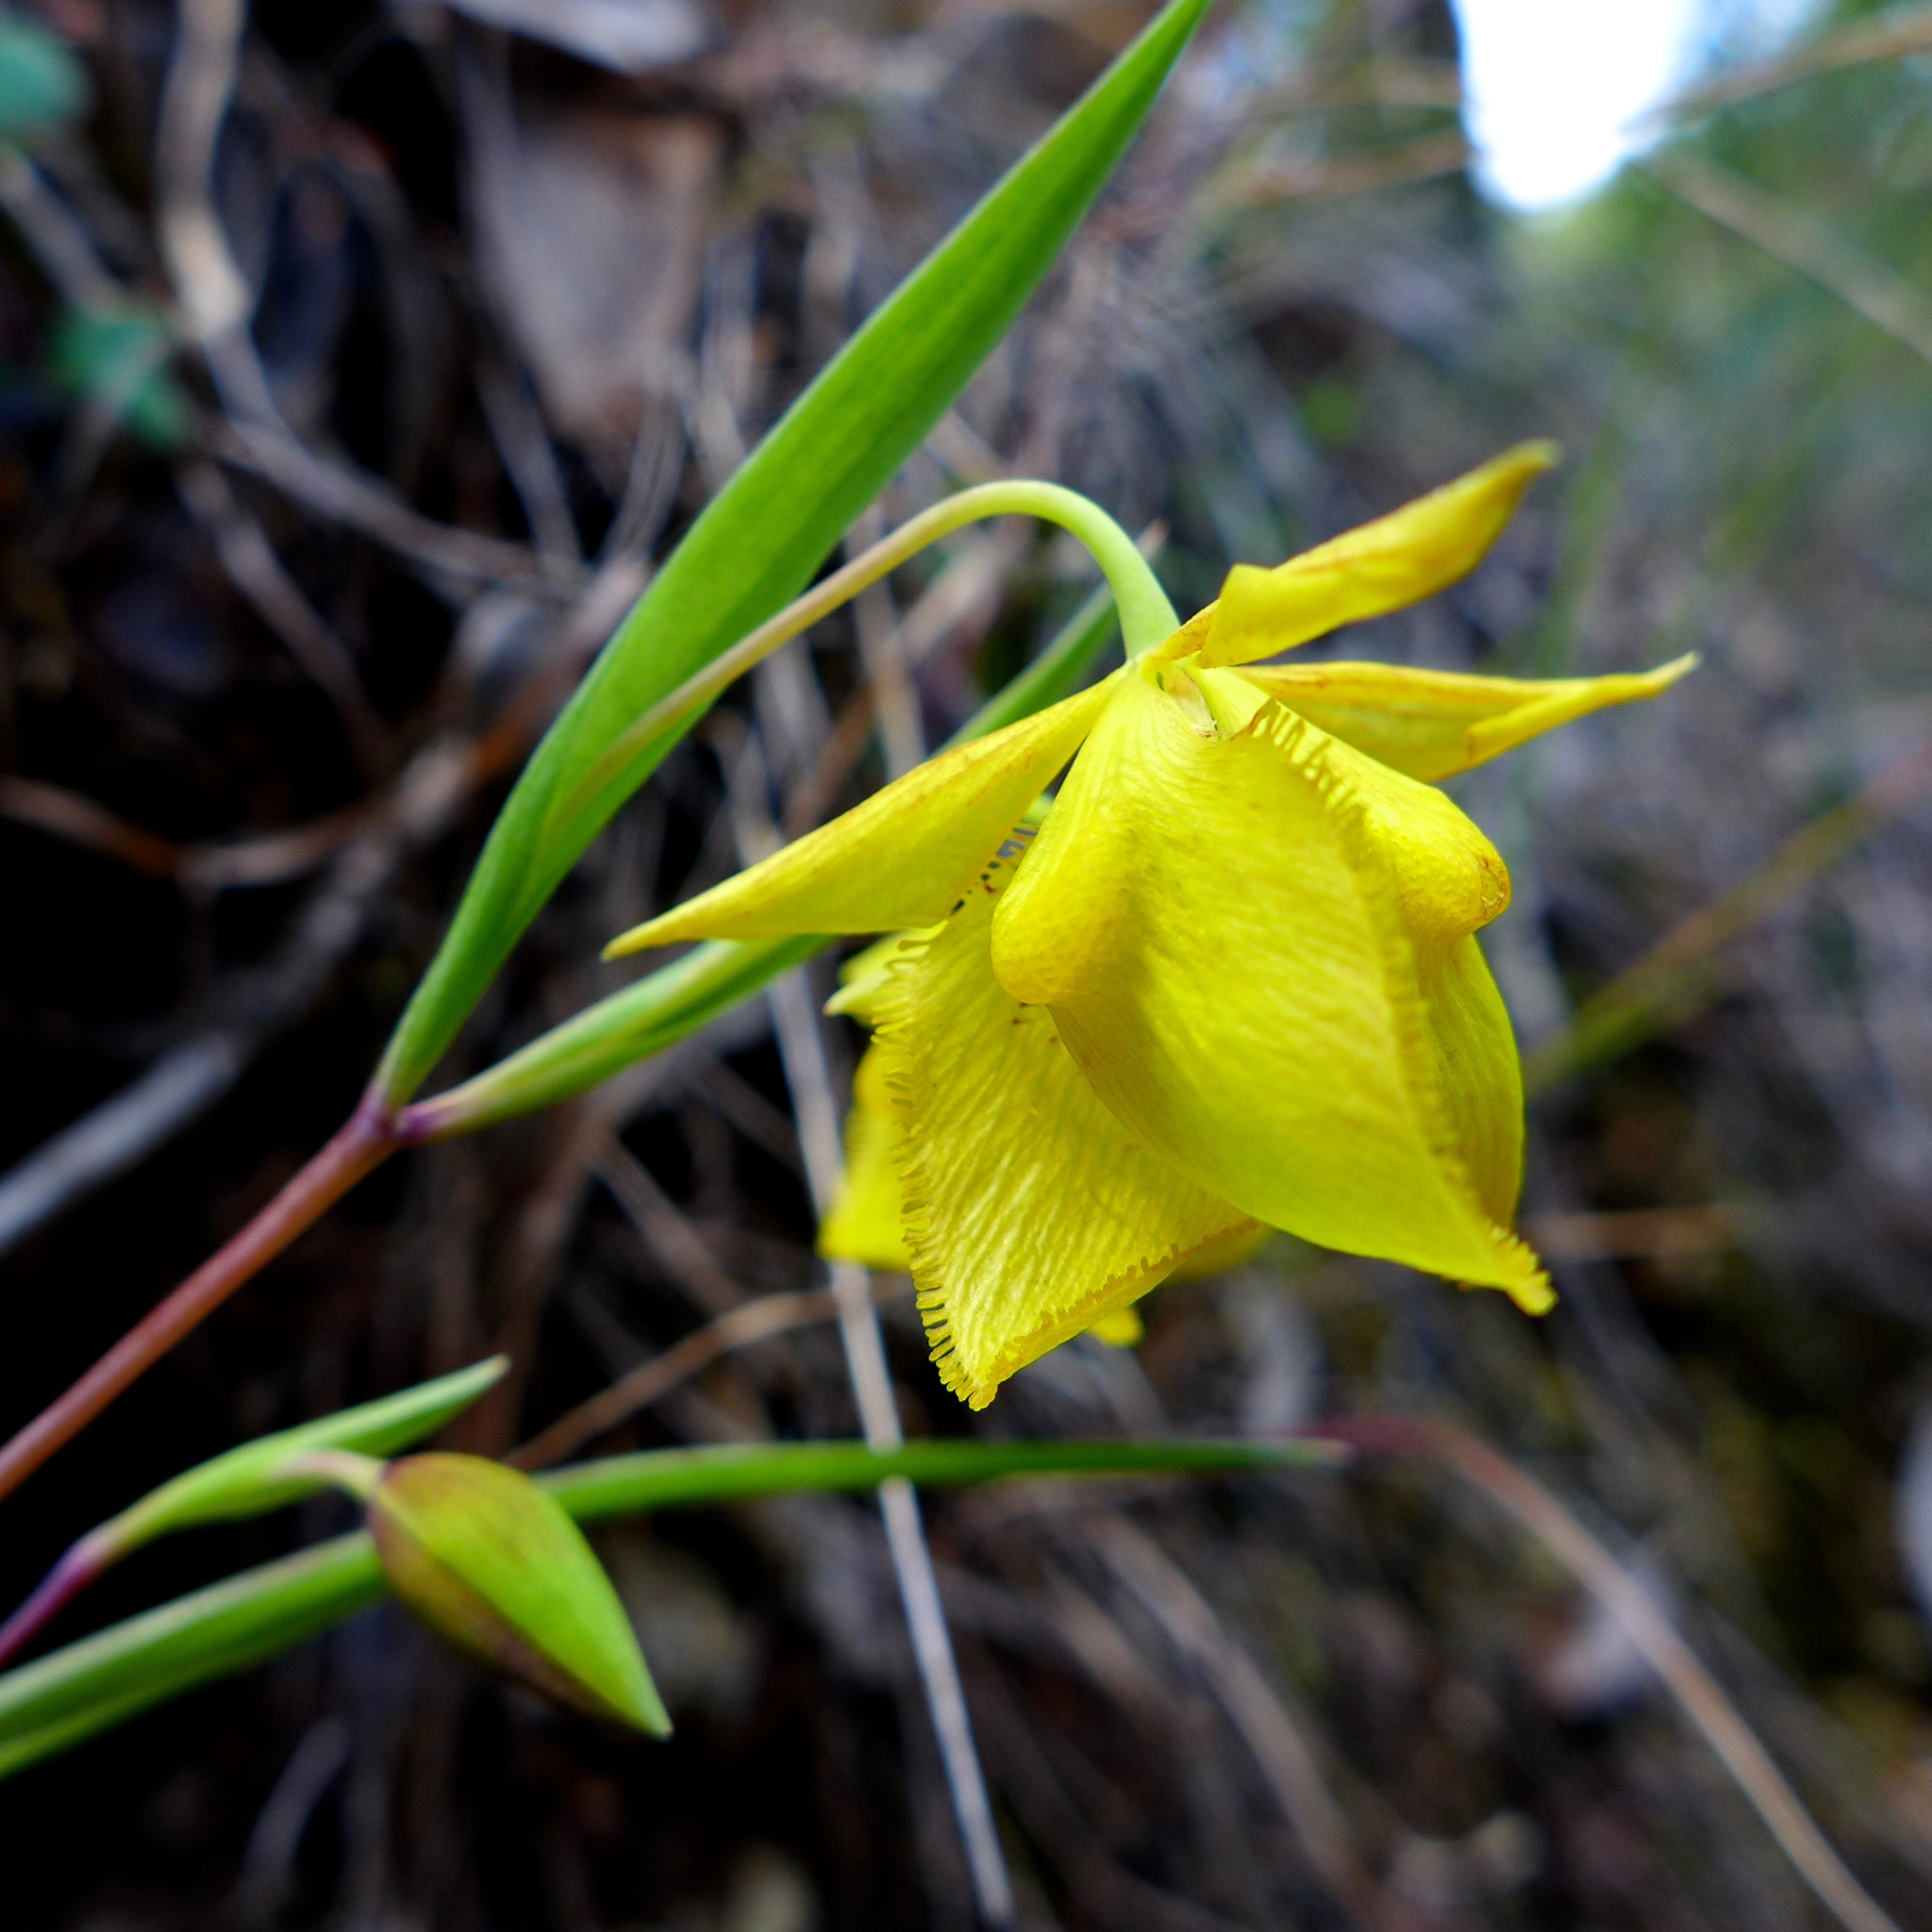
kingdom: Plantae
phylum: Tracheophyta
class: Liliopsida
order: Liliales
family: Liliaceae
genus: Calochortus
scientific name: Calochortus amabilis
